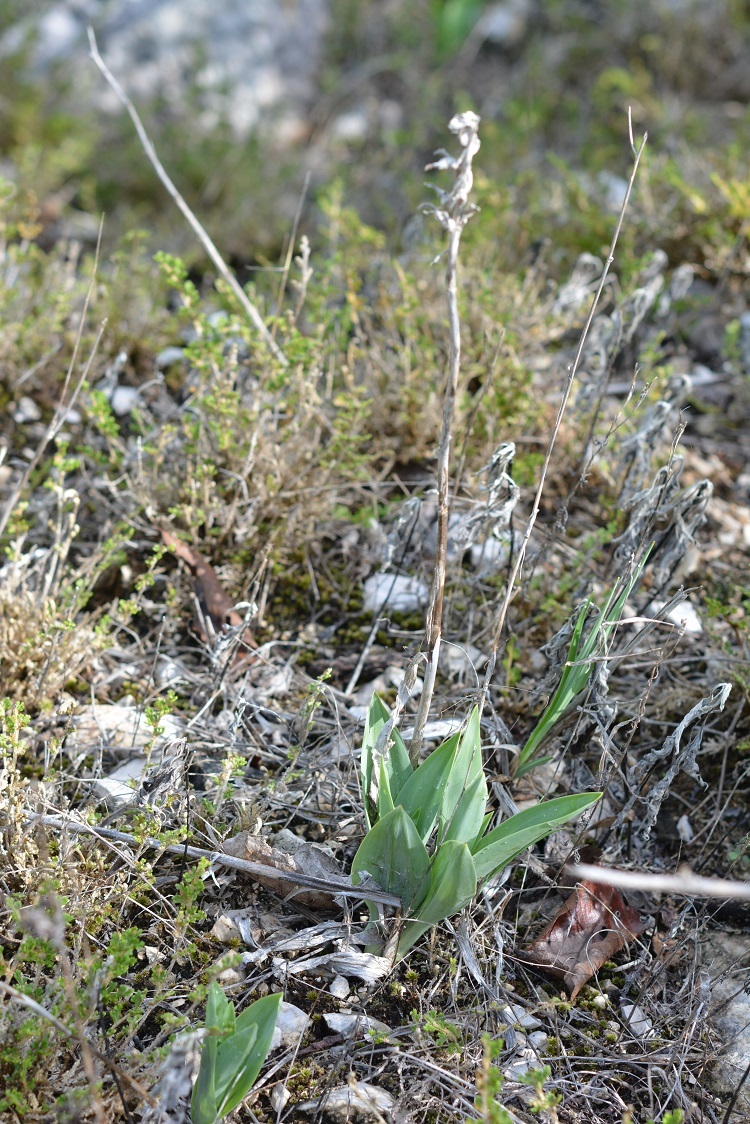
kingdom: Plantae
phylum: Tracheophyta
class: Liliopsida
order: Asparagales
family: Orchidaceae
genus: Dichromanthus
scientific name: Dichromanthus cinnabarinus
